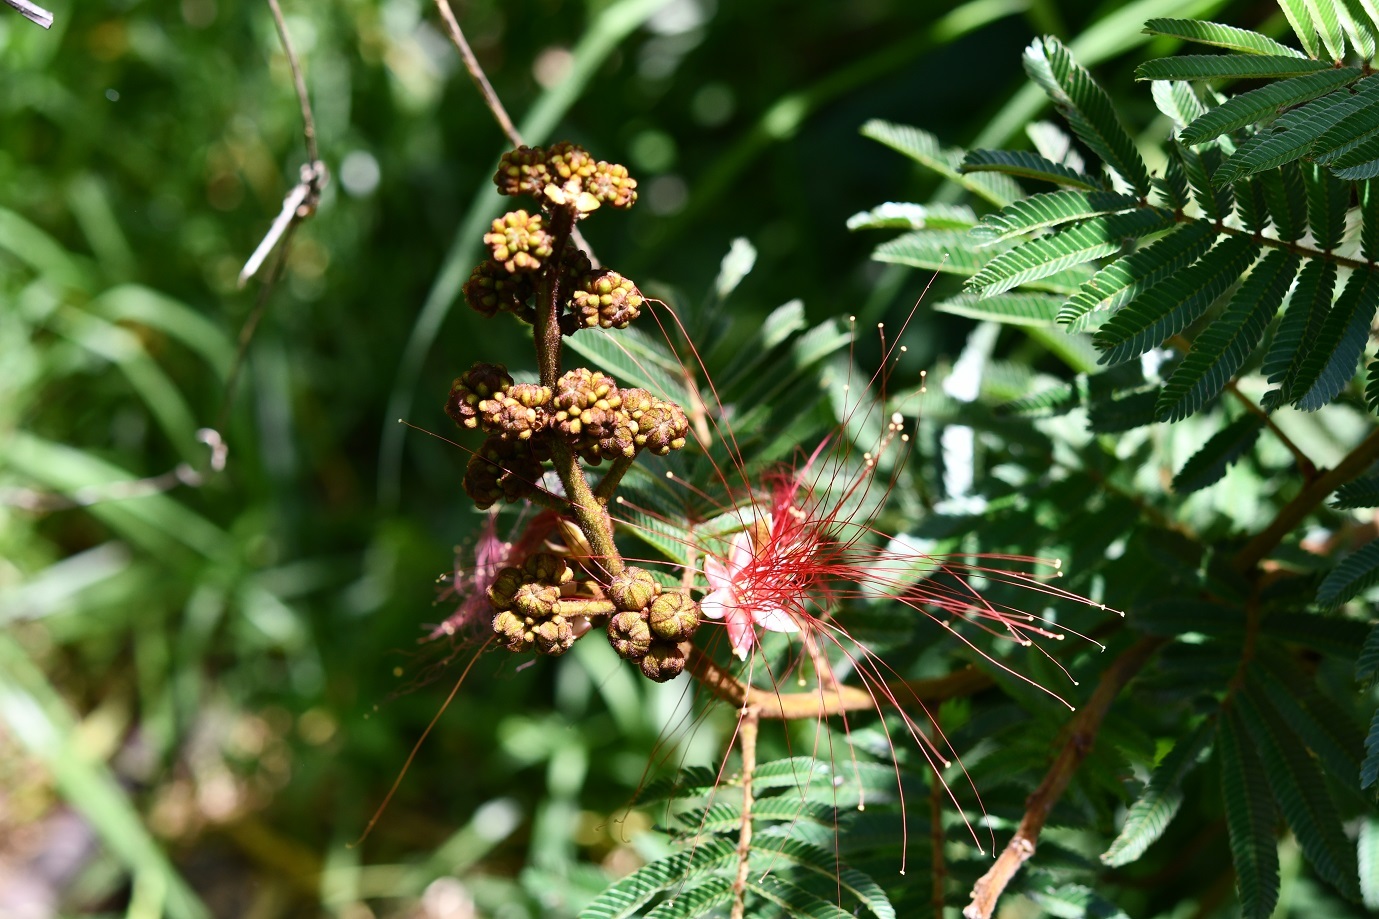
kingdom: Plantae
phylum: Tracheophyta
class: Magnoliopsida
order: Fabales
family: Fabaceae
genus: Calliandra
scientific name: Calliandra houstoniana
